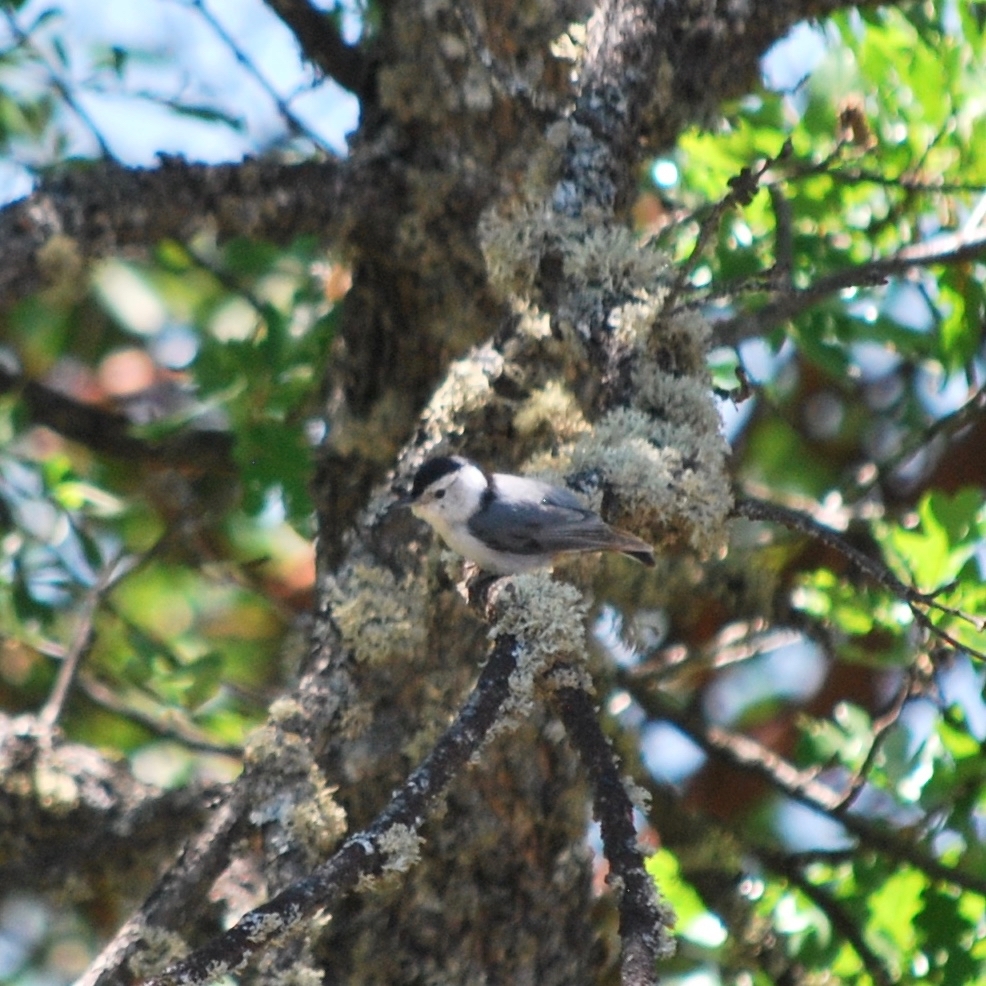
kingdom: Animalia
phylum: Chordata
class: Aves
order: Passeriformes
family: Sittidae
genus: Sitta
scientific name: Sitta carolinensis
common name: White-breasted nuthatch
